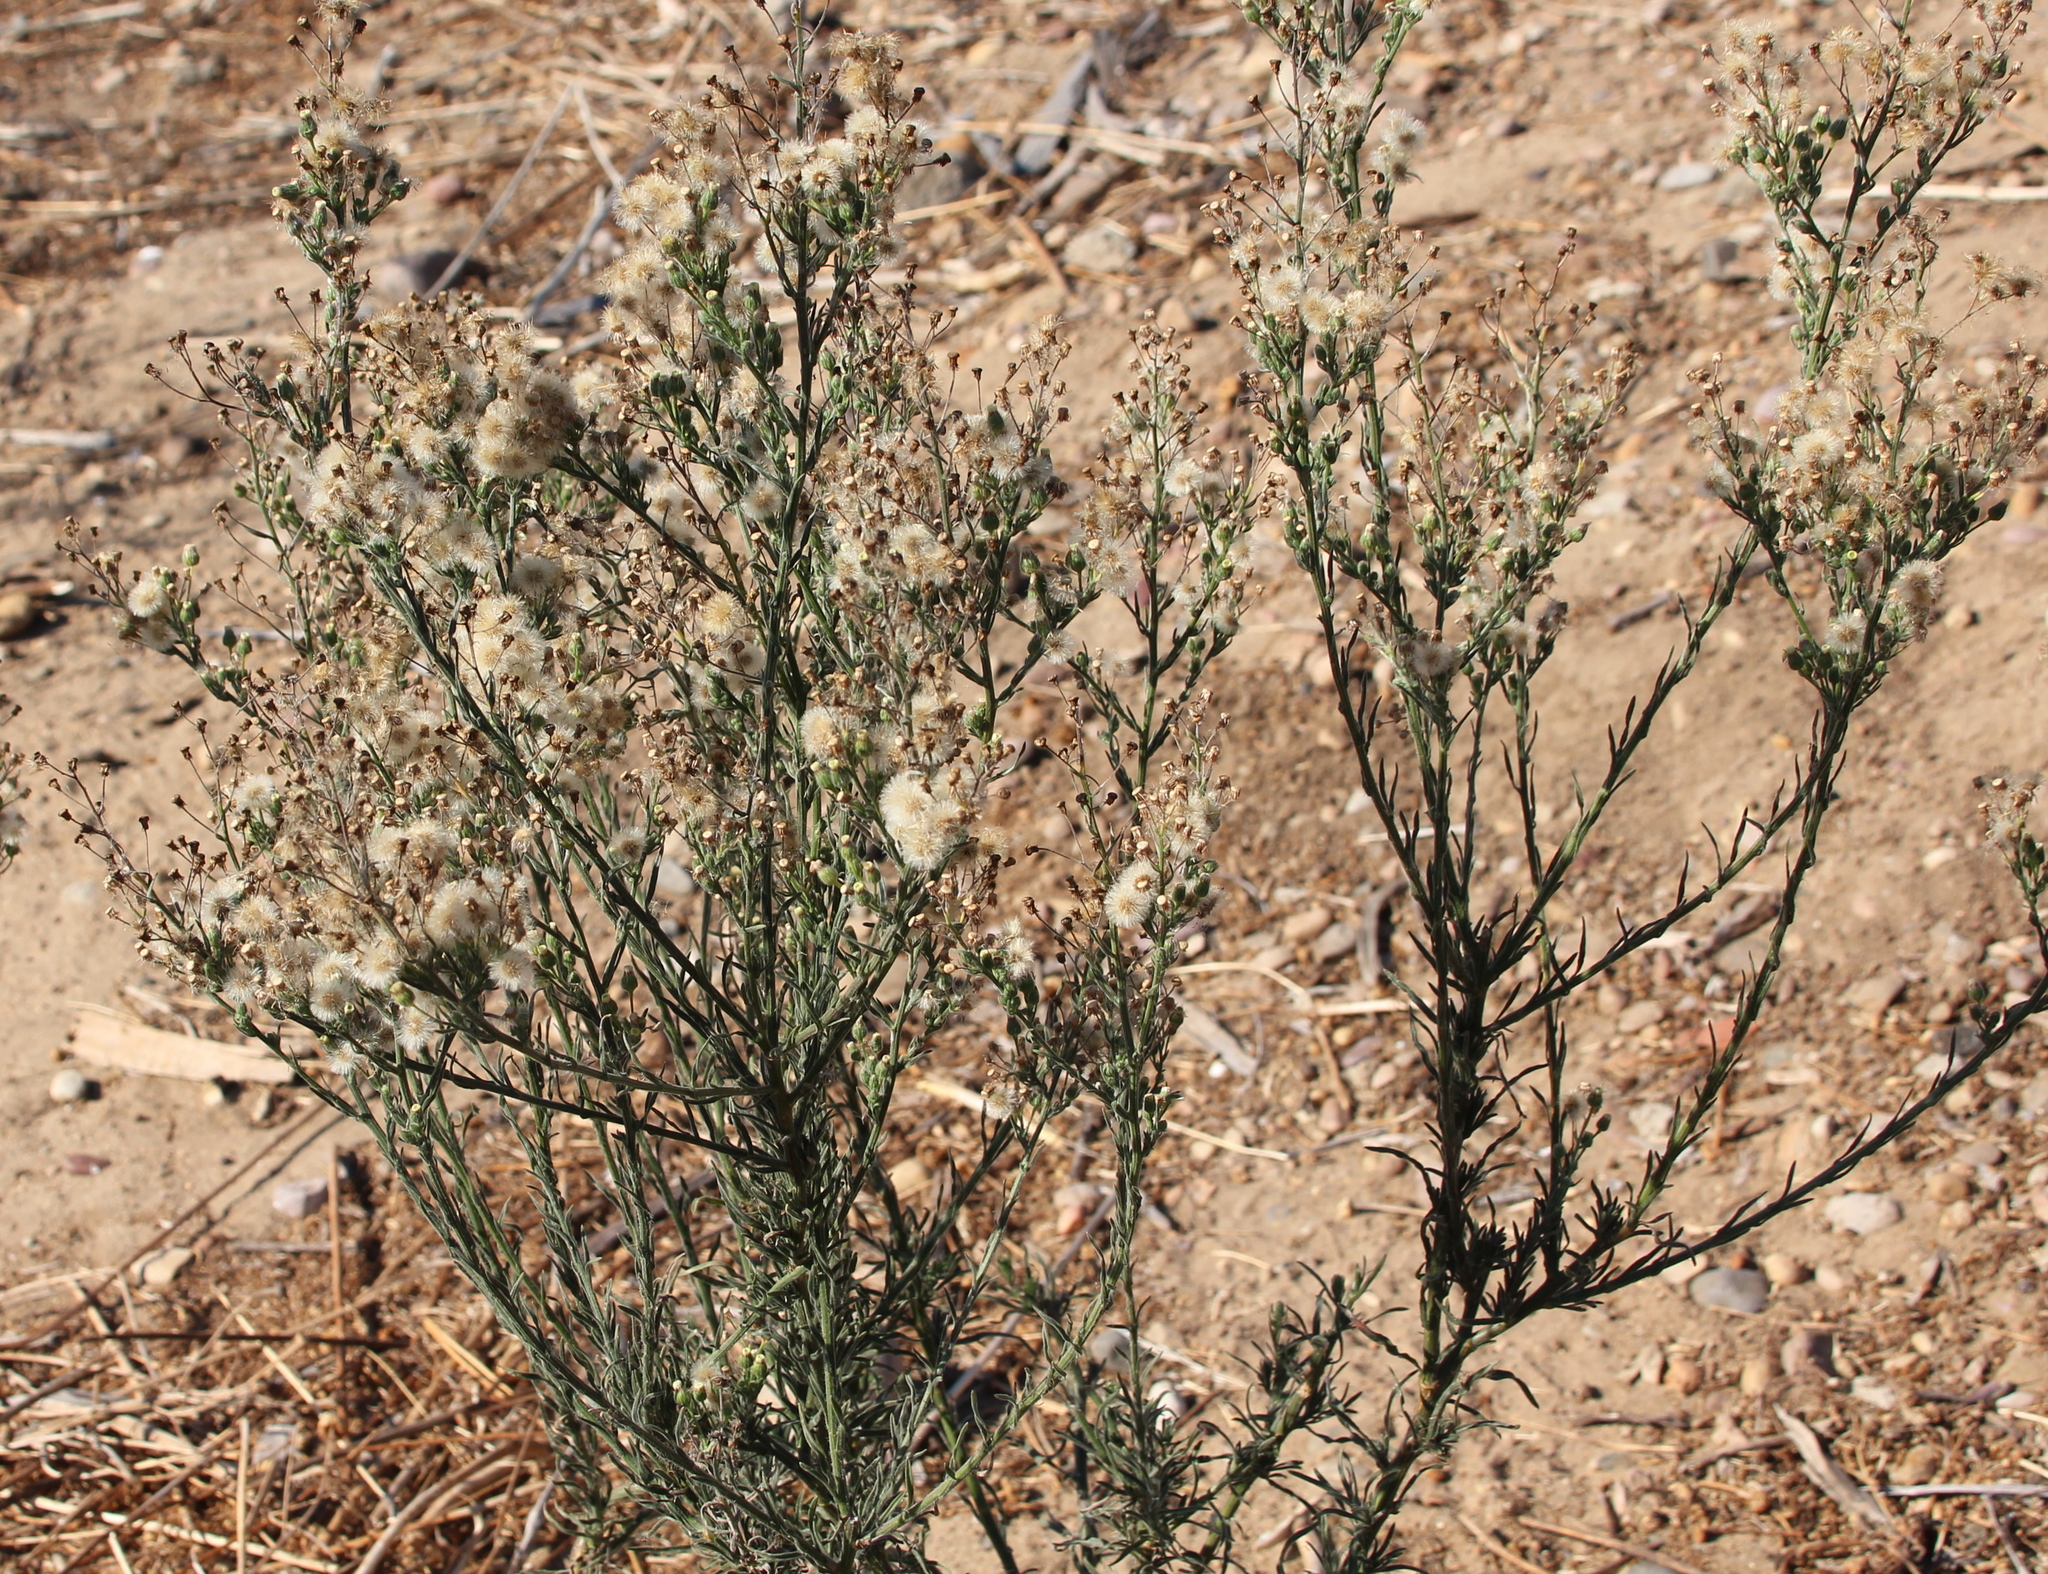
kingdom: Plantae
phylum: Tracheophyta
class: Magnoliopsida
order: Asterales
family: Asteraceae
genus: Erigeron
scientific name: Erigeron bonariensis
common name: Argentine fleabane
